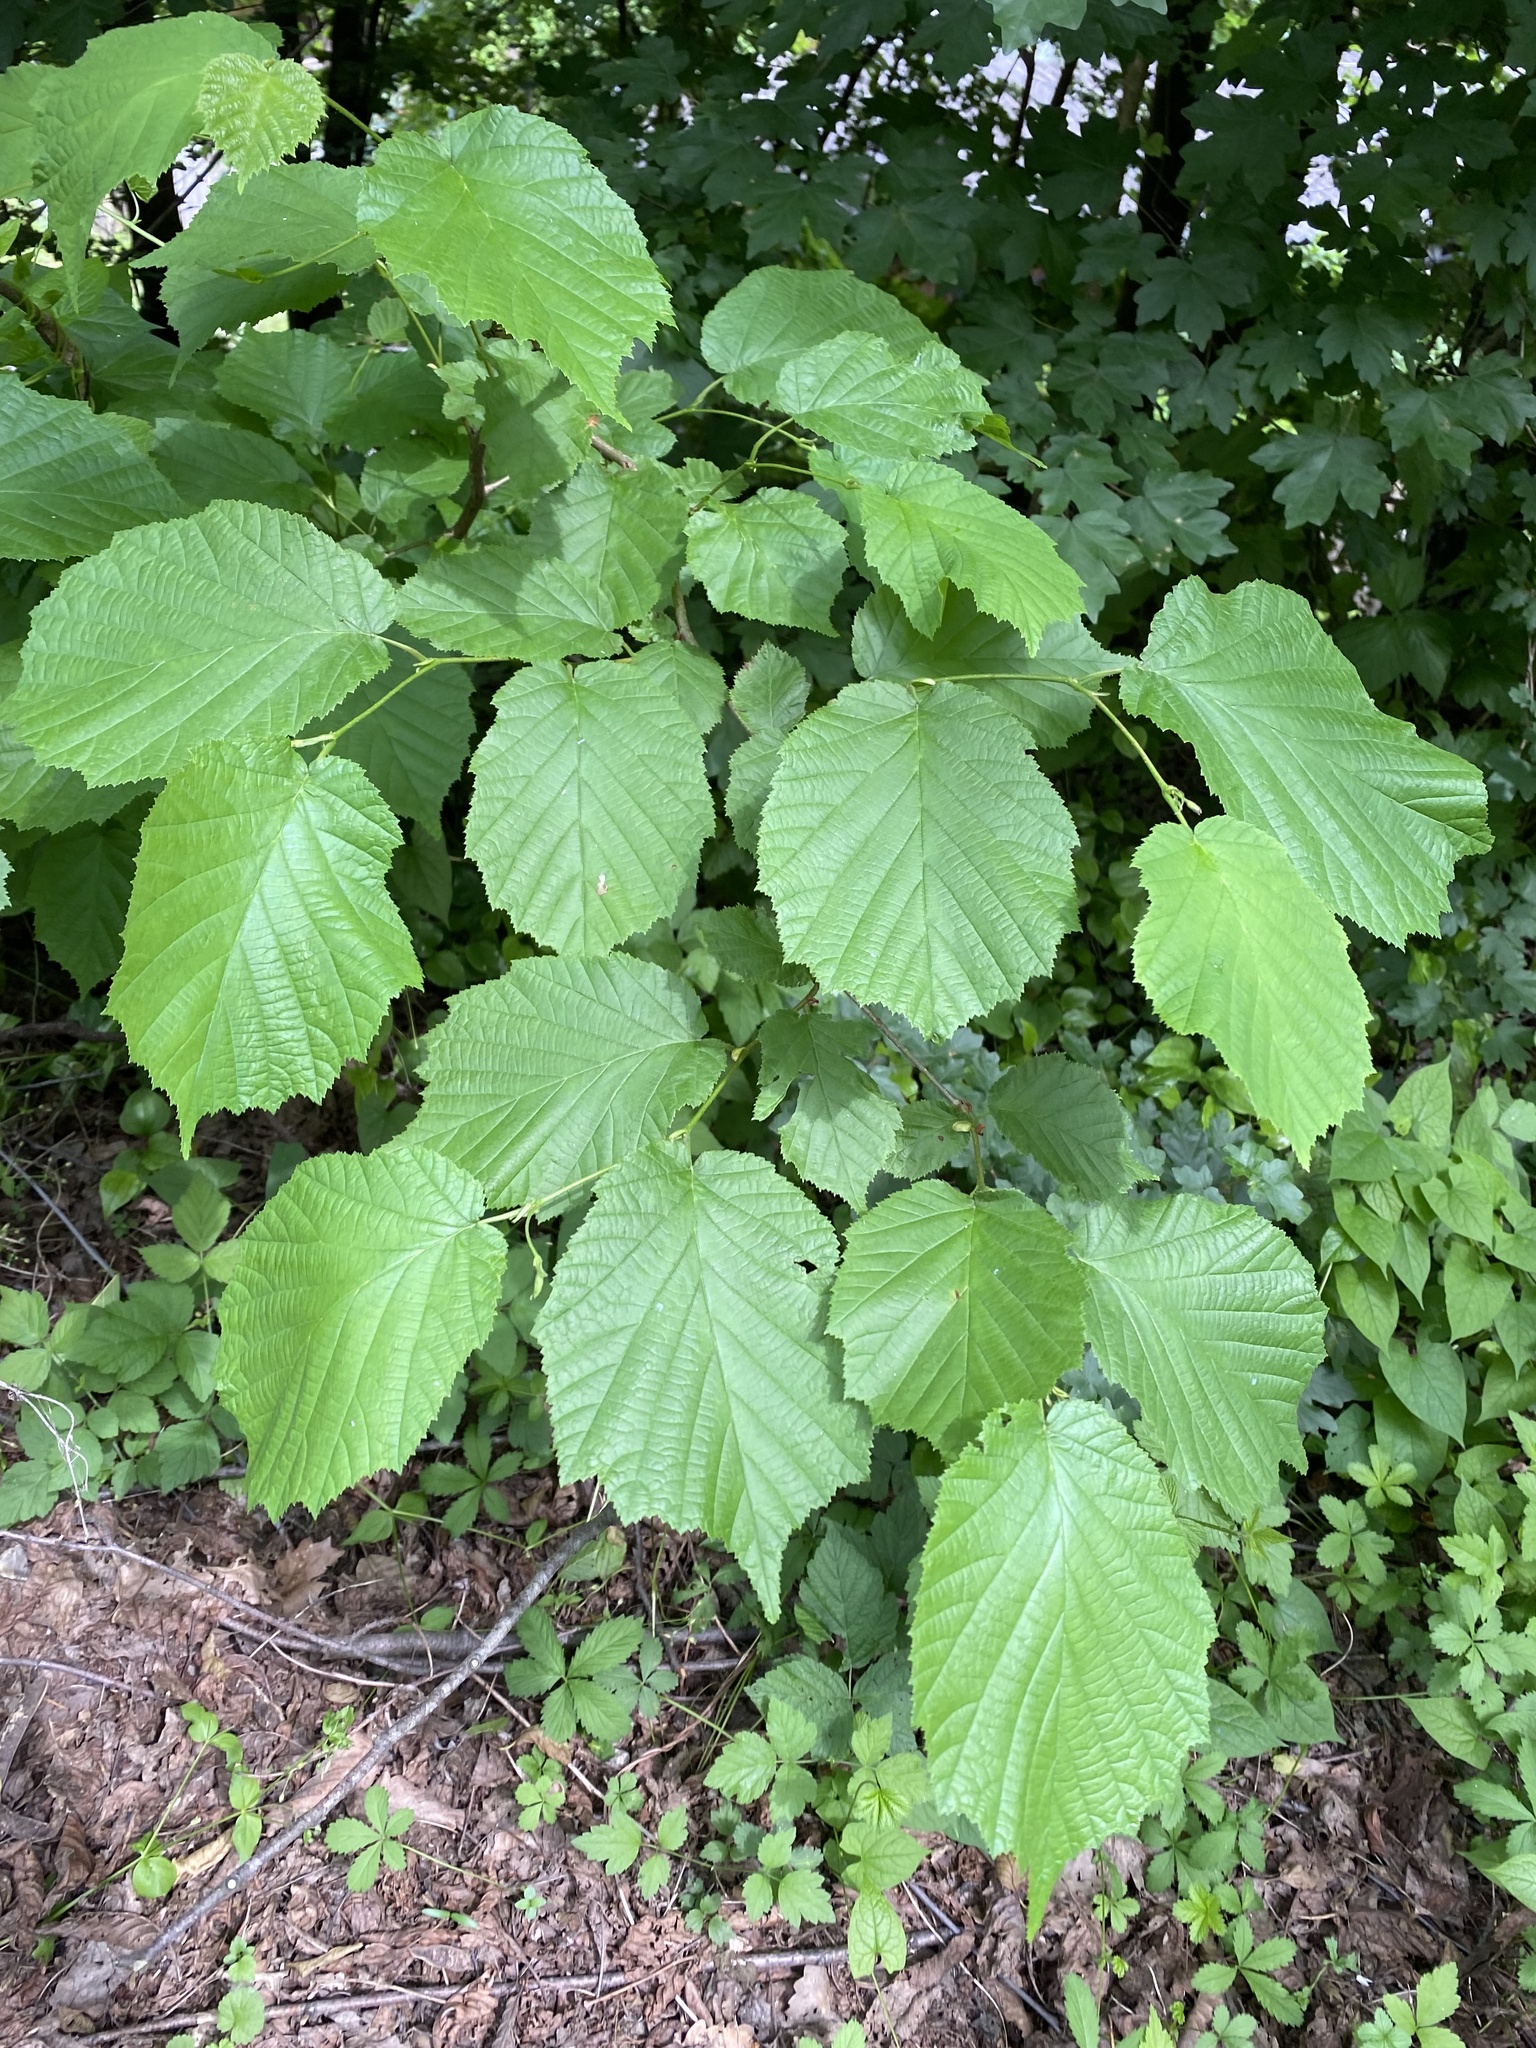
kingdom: Plantae
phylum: Tracheophyta
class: Magnoliopsida
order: Fagales
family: Betulaceae
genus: Corylus
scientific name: Corylus avellana
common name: European hazel
